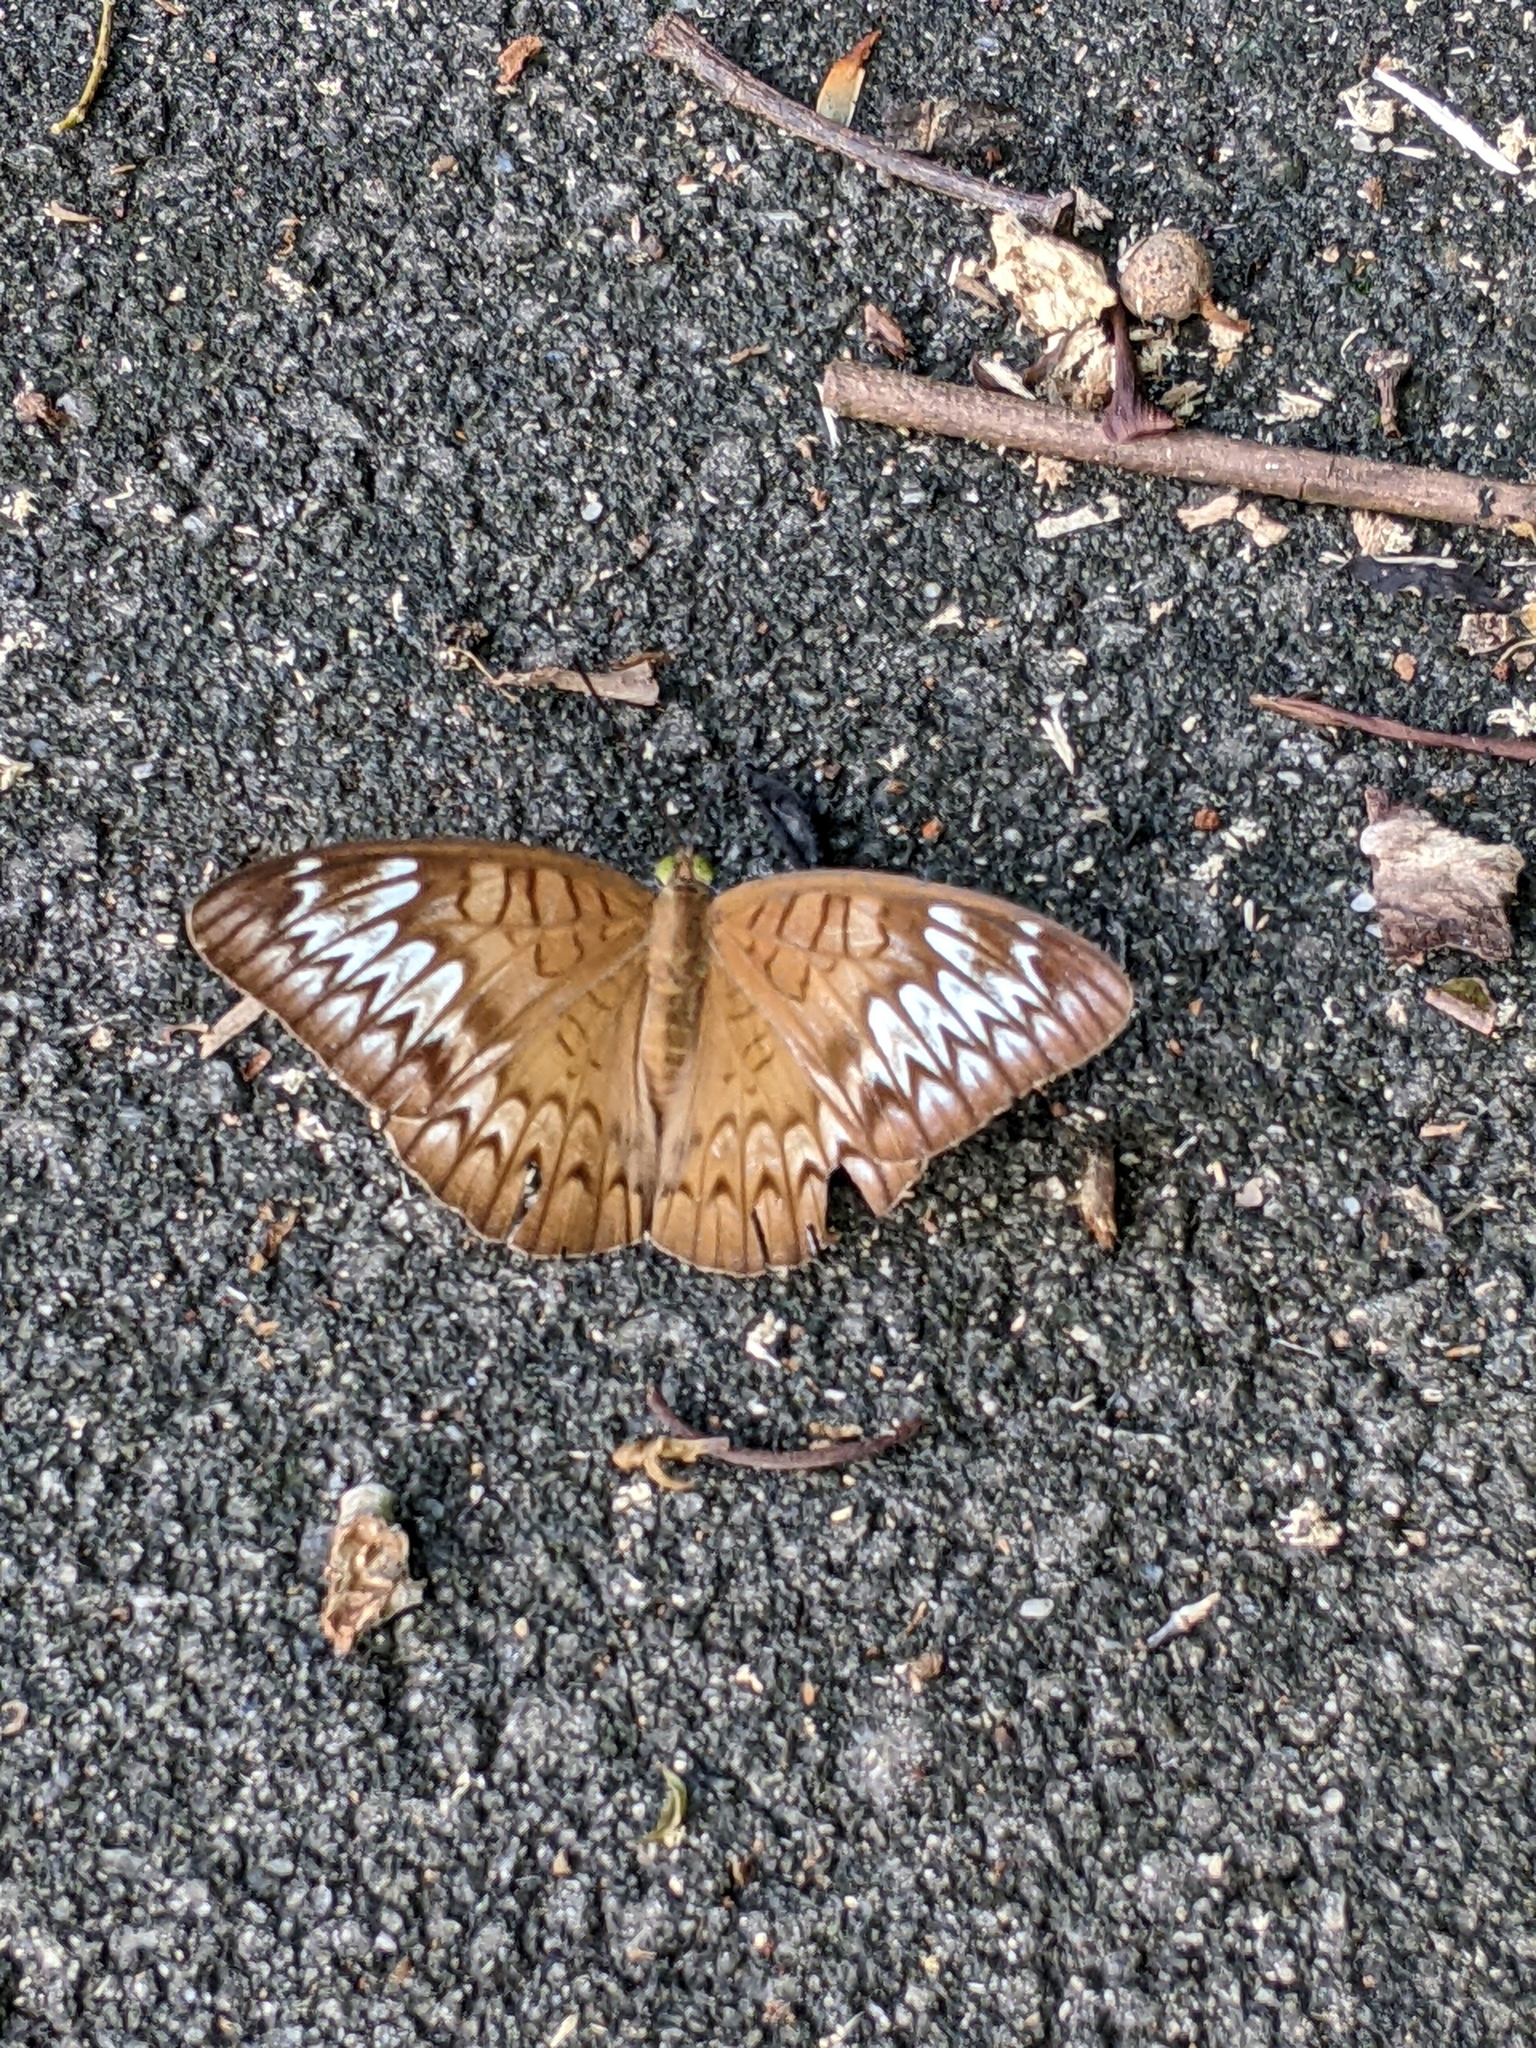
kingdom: Animalia
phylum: Arthropoda
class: Insecta
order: Lepidoptera
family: Nymphalidae
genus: Tanaecia
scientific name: Tanaecia pelea
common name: Malay viscount
